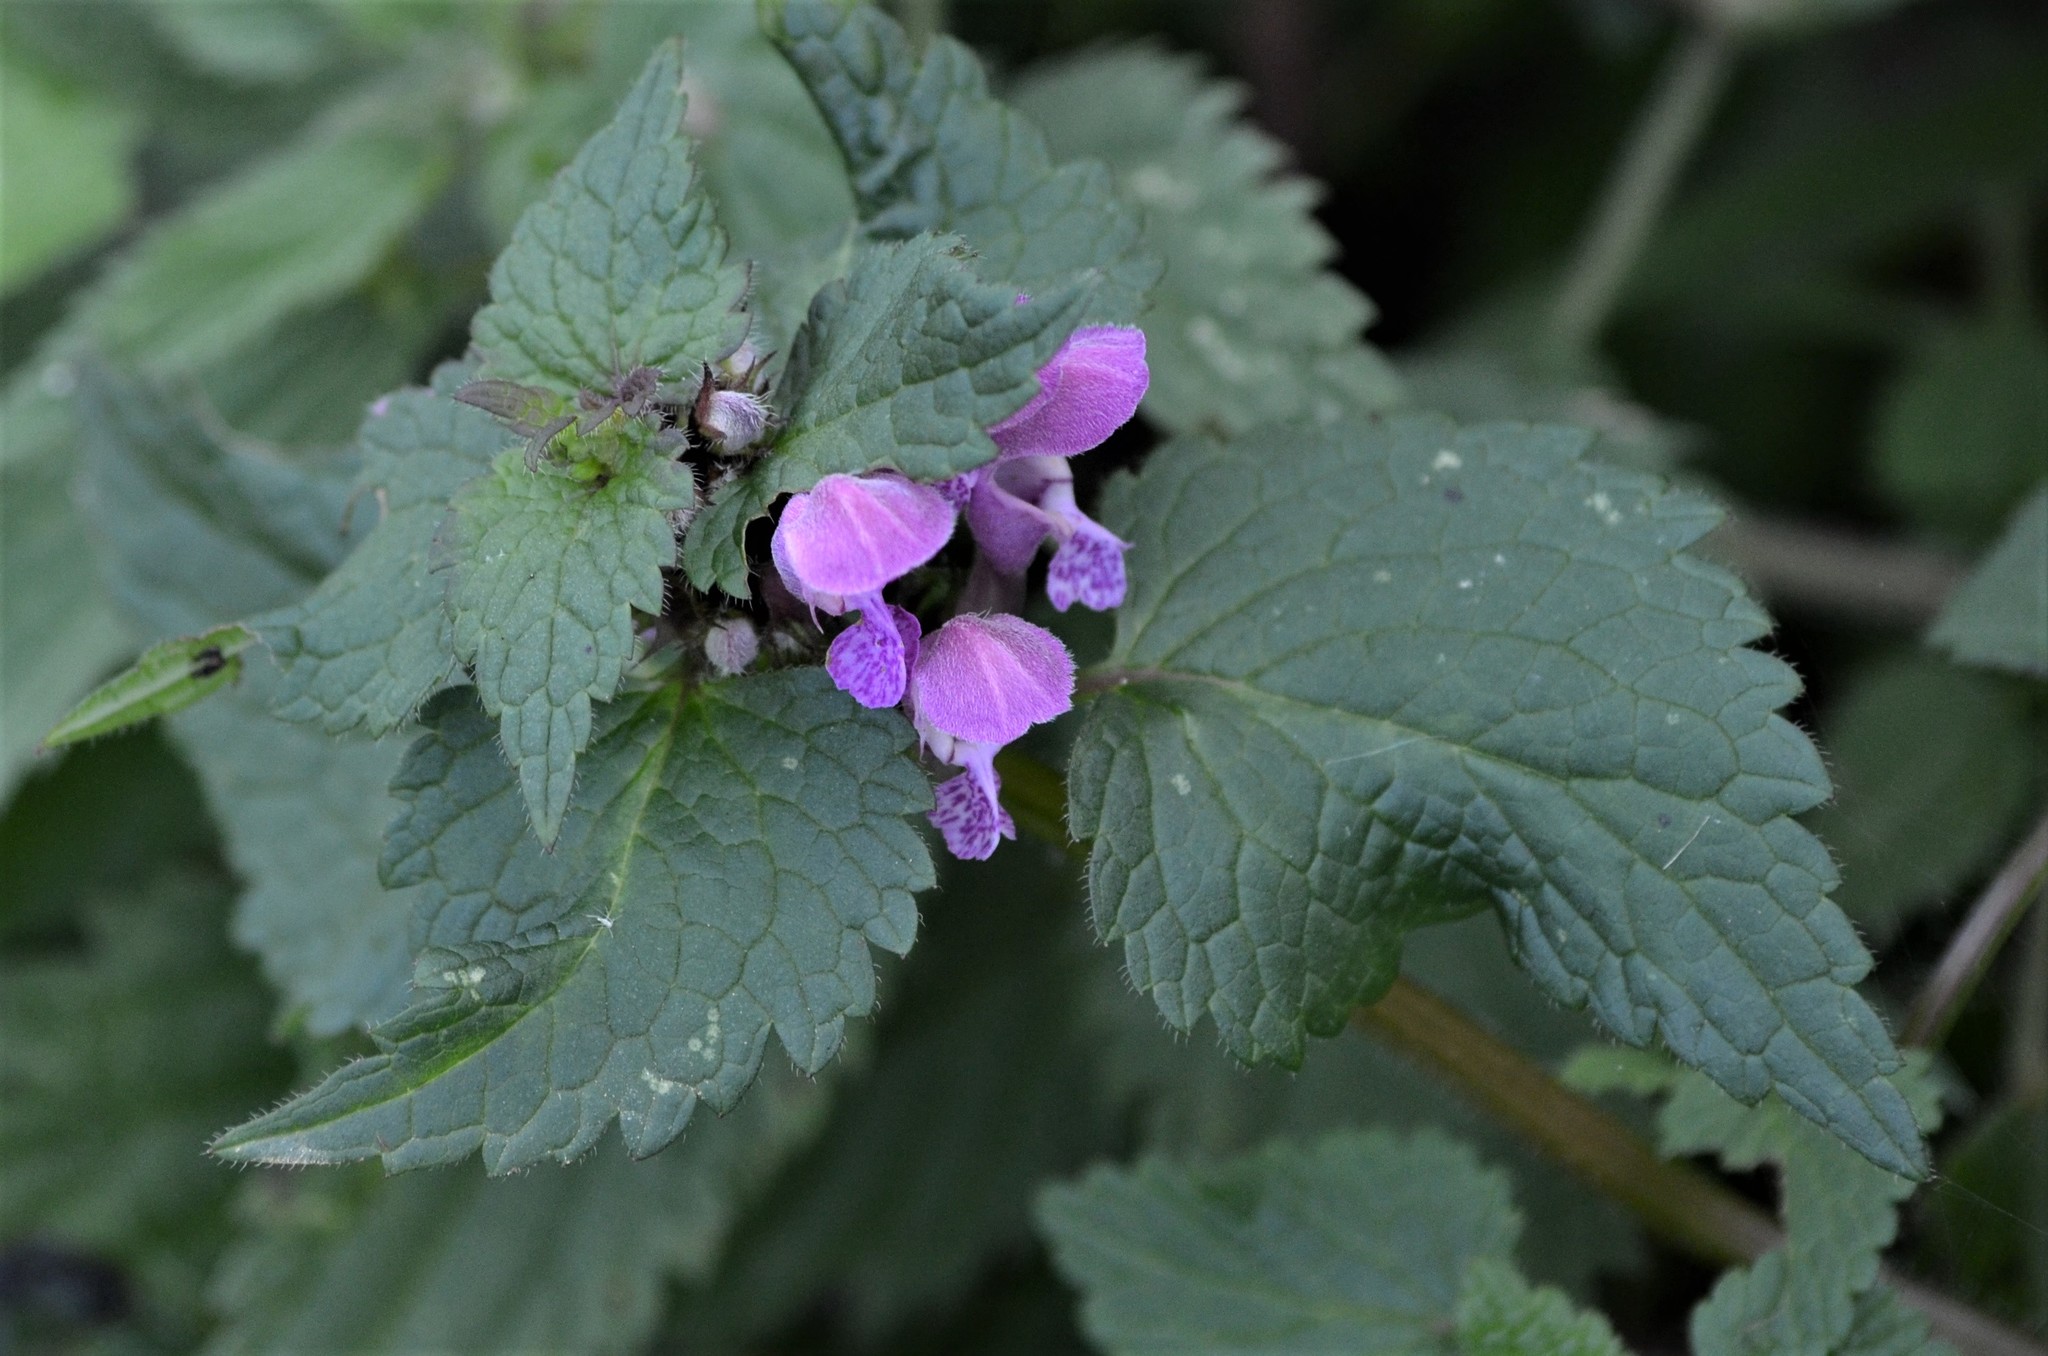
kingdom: Plantae
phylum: Tracheophyta
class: Magnoliopsida
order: Lamiales
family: Lamiaceae
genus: Lamium
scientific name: Lamium maculatum
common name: Spotted dead-nettle
